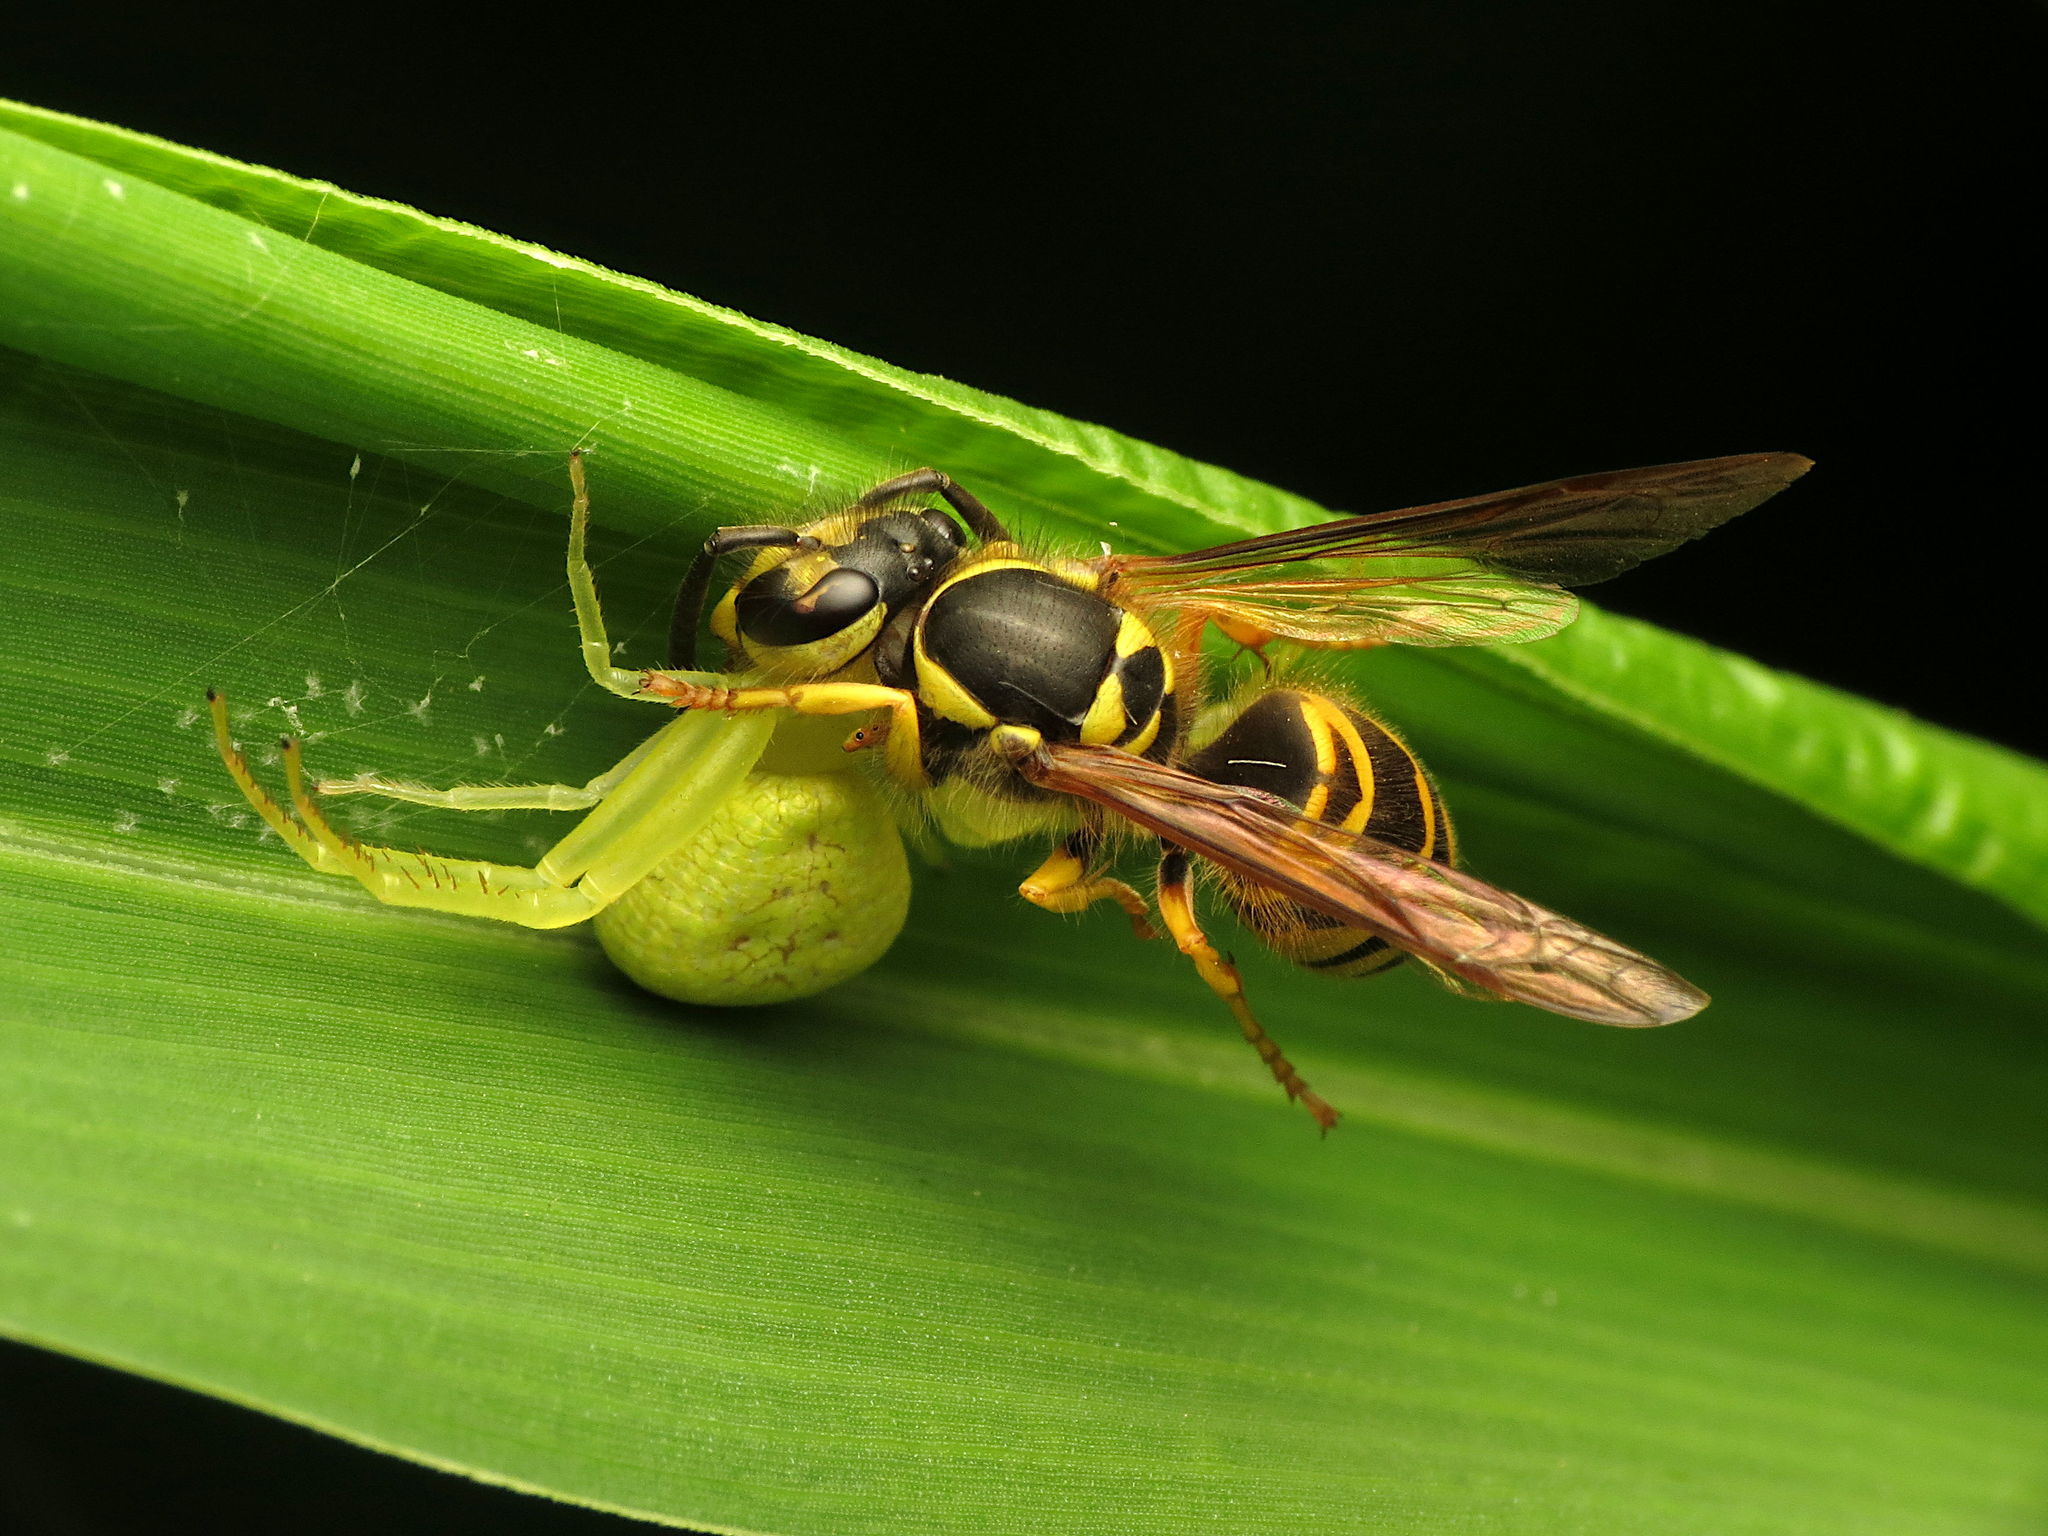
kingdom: Animalia
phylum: Arthropoda
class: Insecta
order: Hymenoptera
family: Vespidae
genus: Vespula
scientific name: Vespula maculifrons
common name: Eastern yellowjacket
